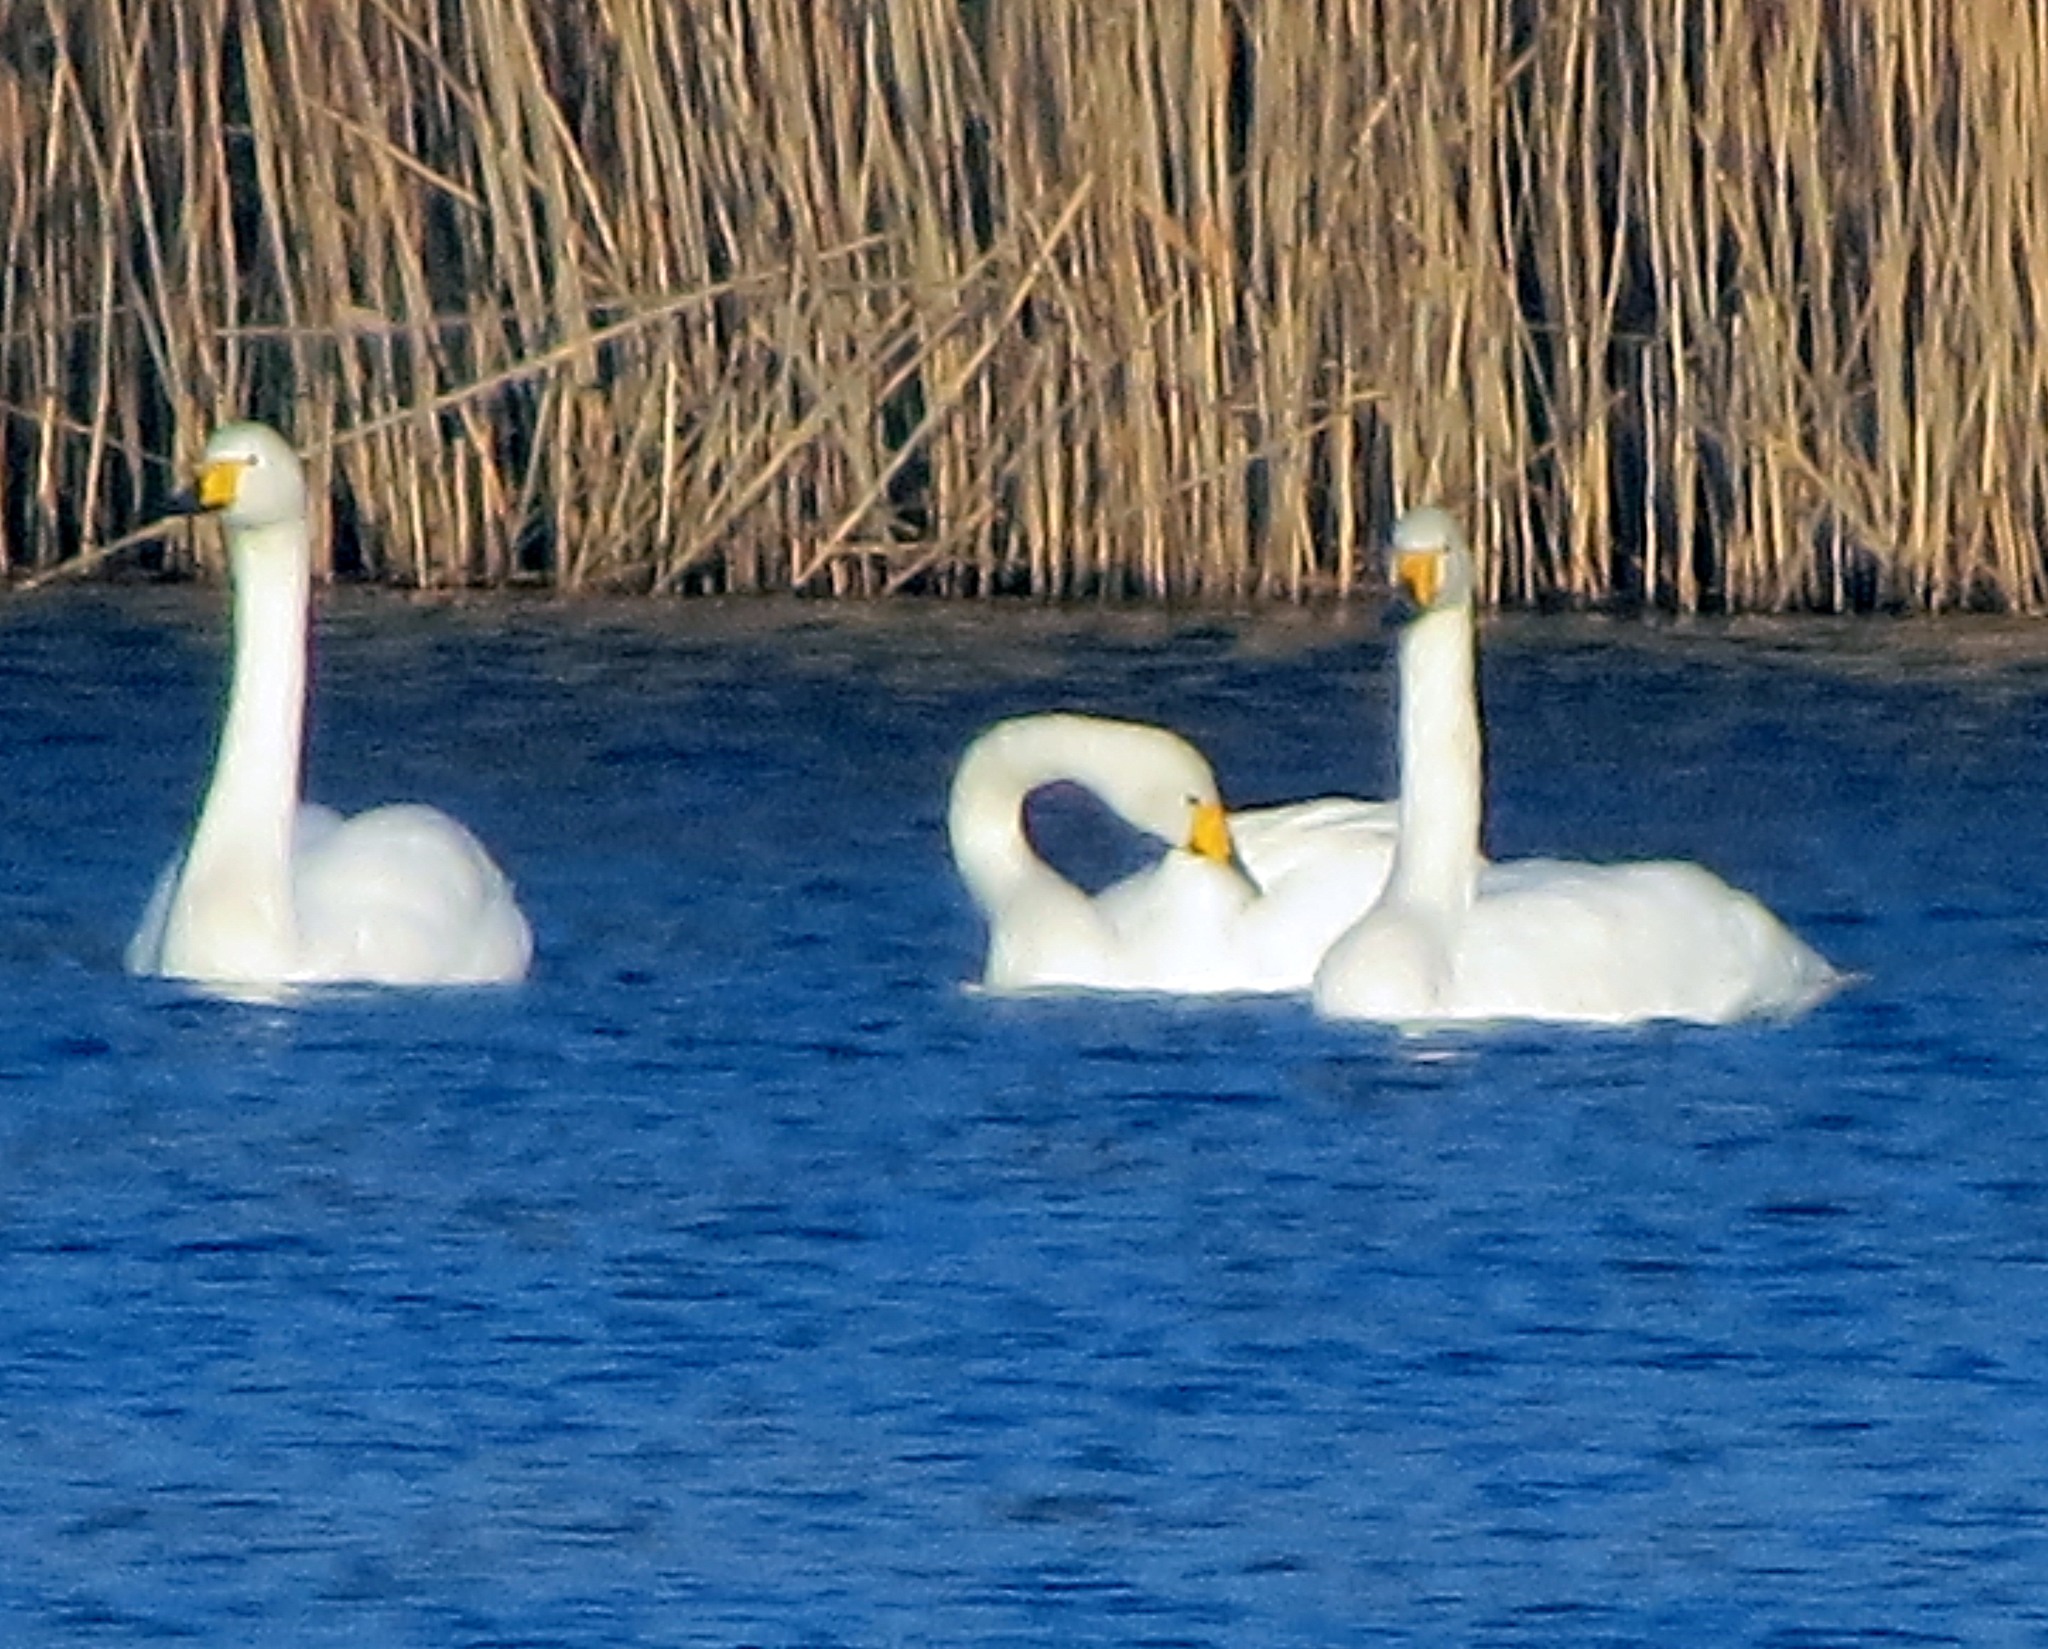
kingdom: Animalia
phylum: Chordata
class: Aves
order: Anseriformes
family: Anatidae
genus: Cygnus
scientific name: Cygnus cygnus
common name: Whooper swan
